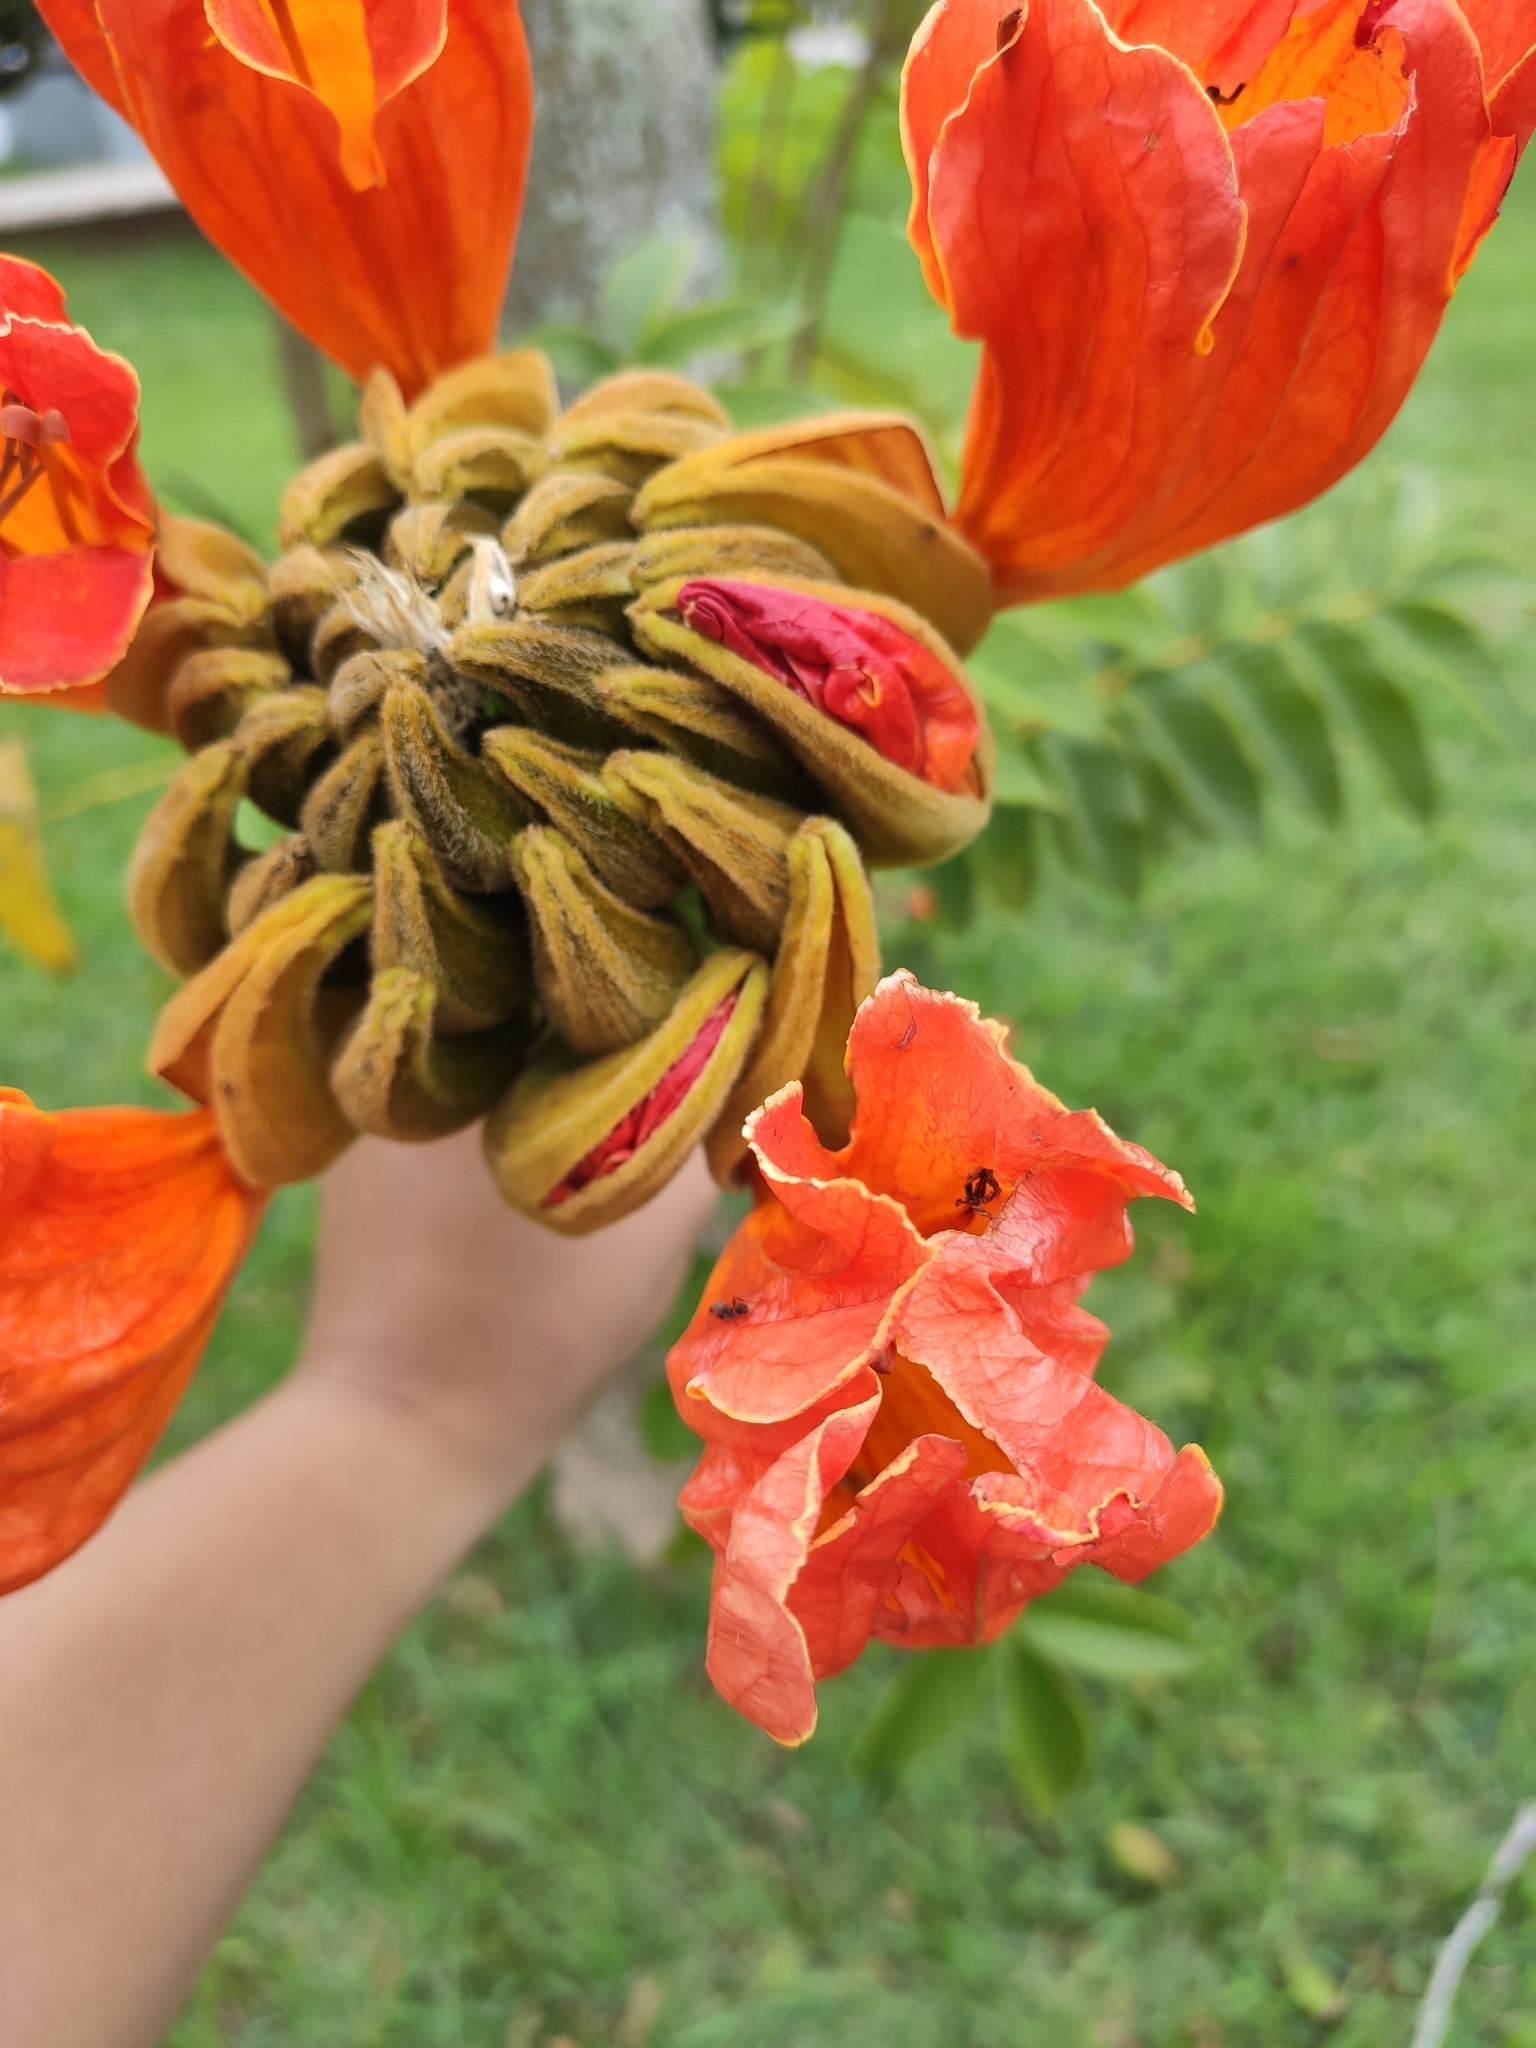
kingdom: Plantae
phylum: Tracheophyta
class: Magnoliopsida
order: Lamiales
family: Bignoniaceae
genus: Spathodea
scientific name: Spathodea campanulata
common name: African tuliptree
